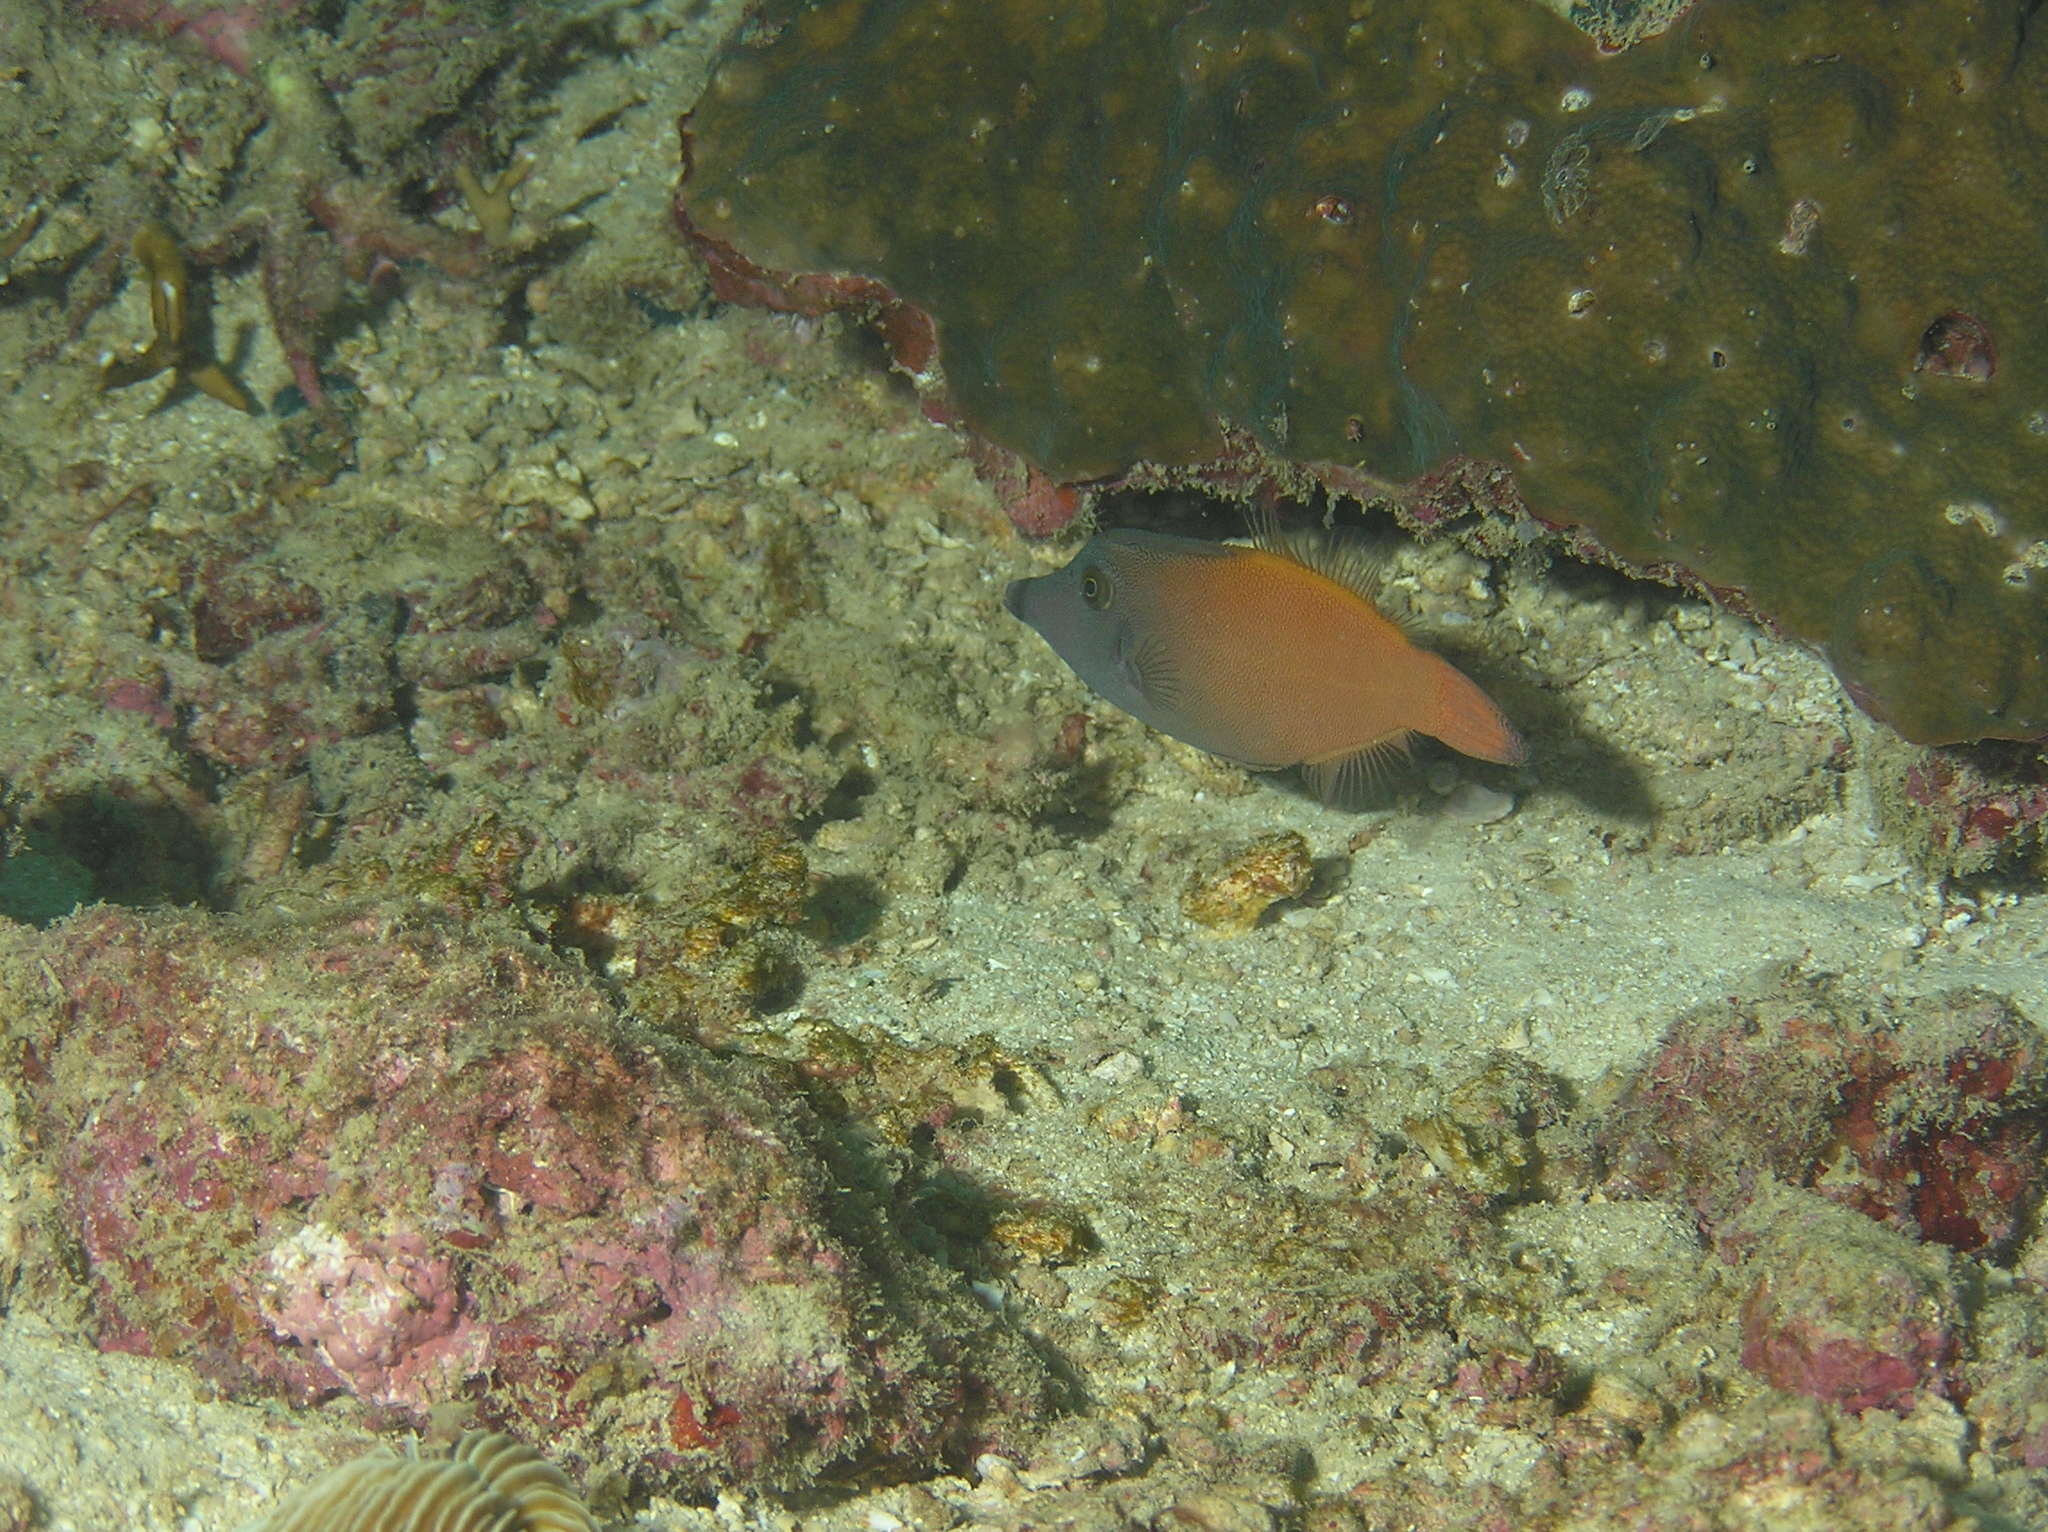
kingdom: Animalia
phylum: Chordata
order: Tetraodontiformes
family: Monacanthidae
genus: Pervagor
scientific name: Pervagor melanocephalus
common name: Black-headed leatherjacket
